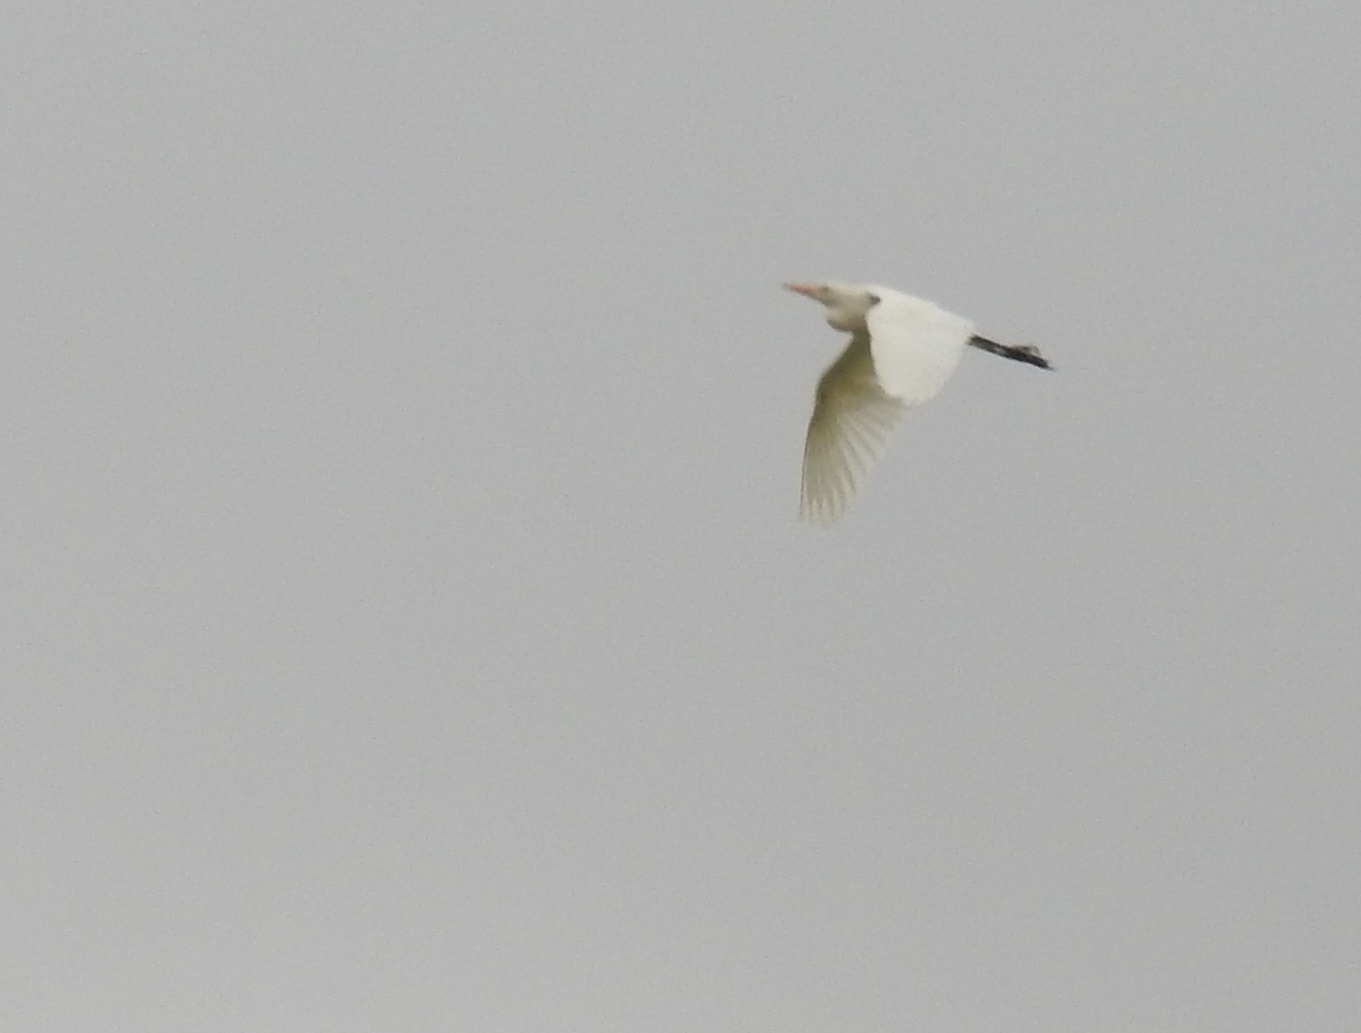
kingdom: Animalia
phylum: Chordata
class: Aves
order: Pelecaniformes
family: Ardeidae
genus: Bubulcus
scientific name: Bubulcus ibis
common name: Cattle egret
